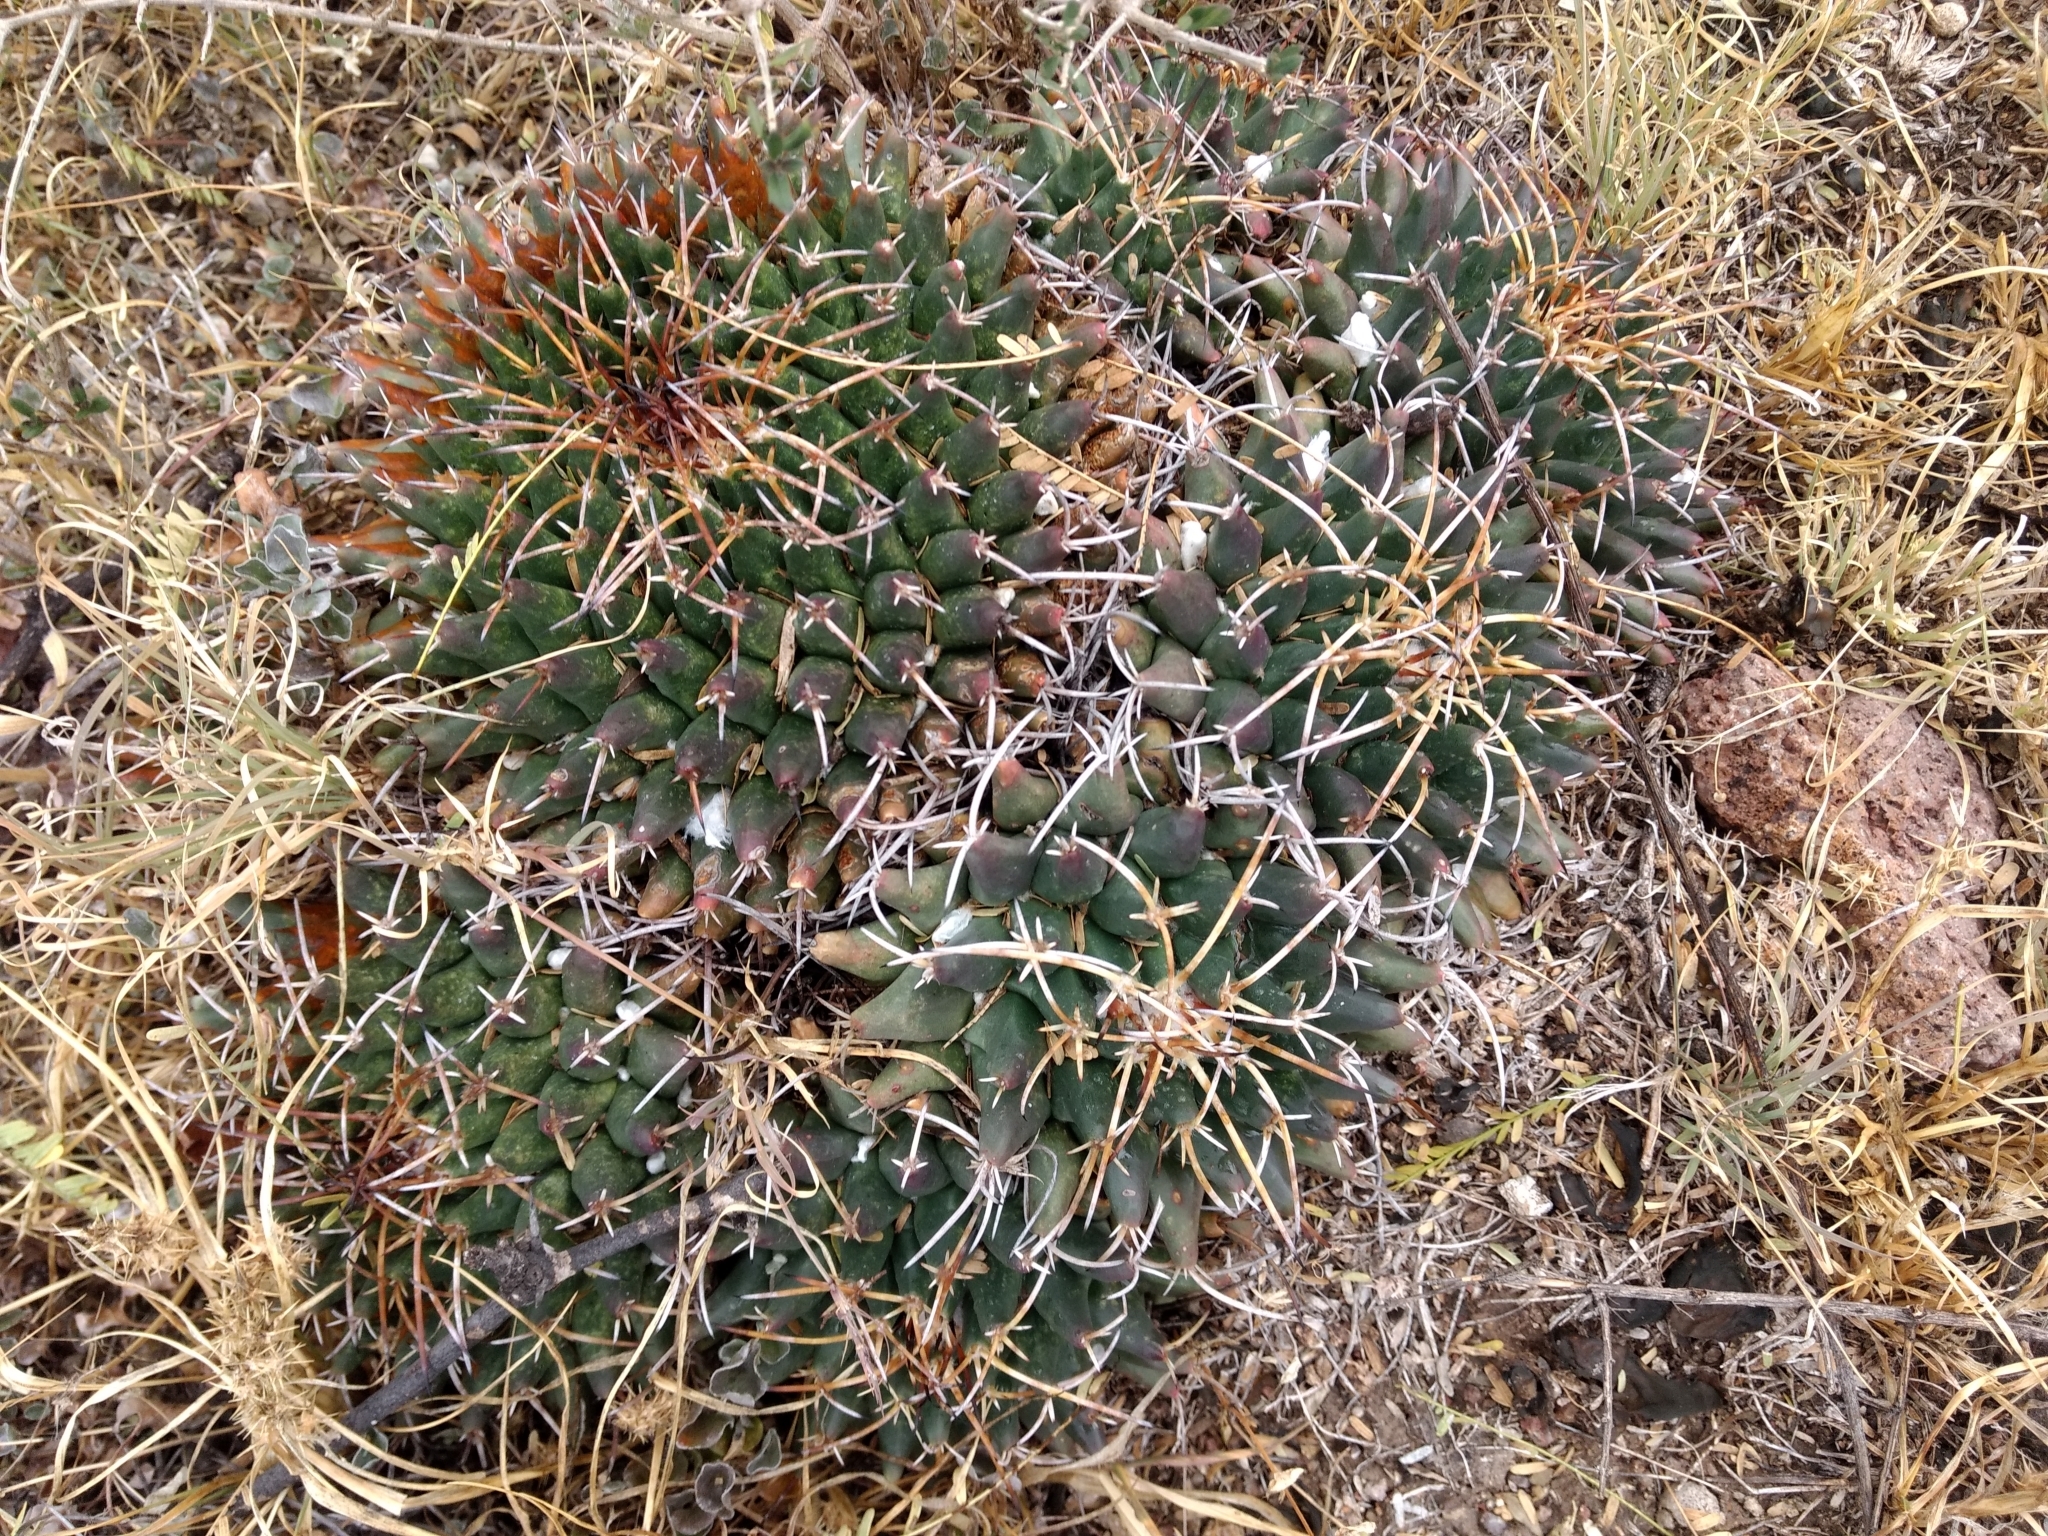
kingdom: Plantae
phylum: Tracheophyta
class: Magnoliopsida
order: Caryophyllales
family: Cactaceae
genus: Mammillaria
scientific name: Mammillaria magnimamma
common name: Mexican pincushion
